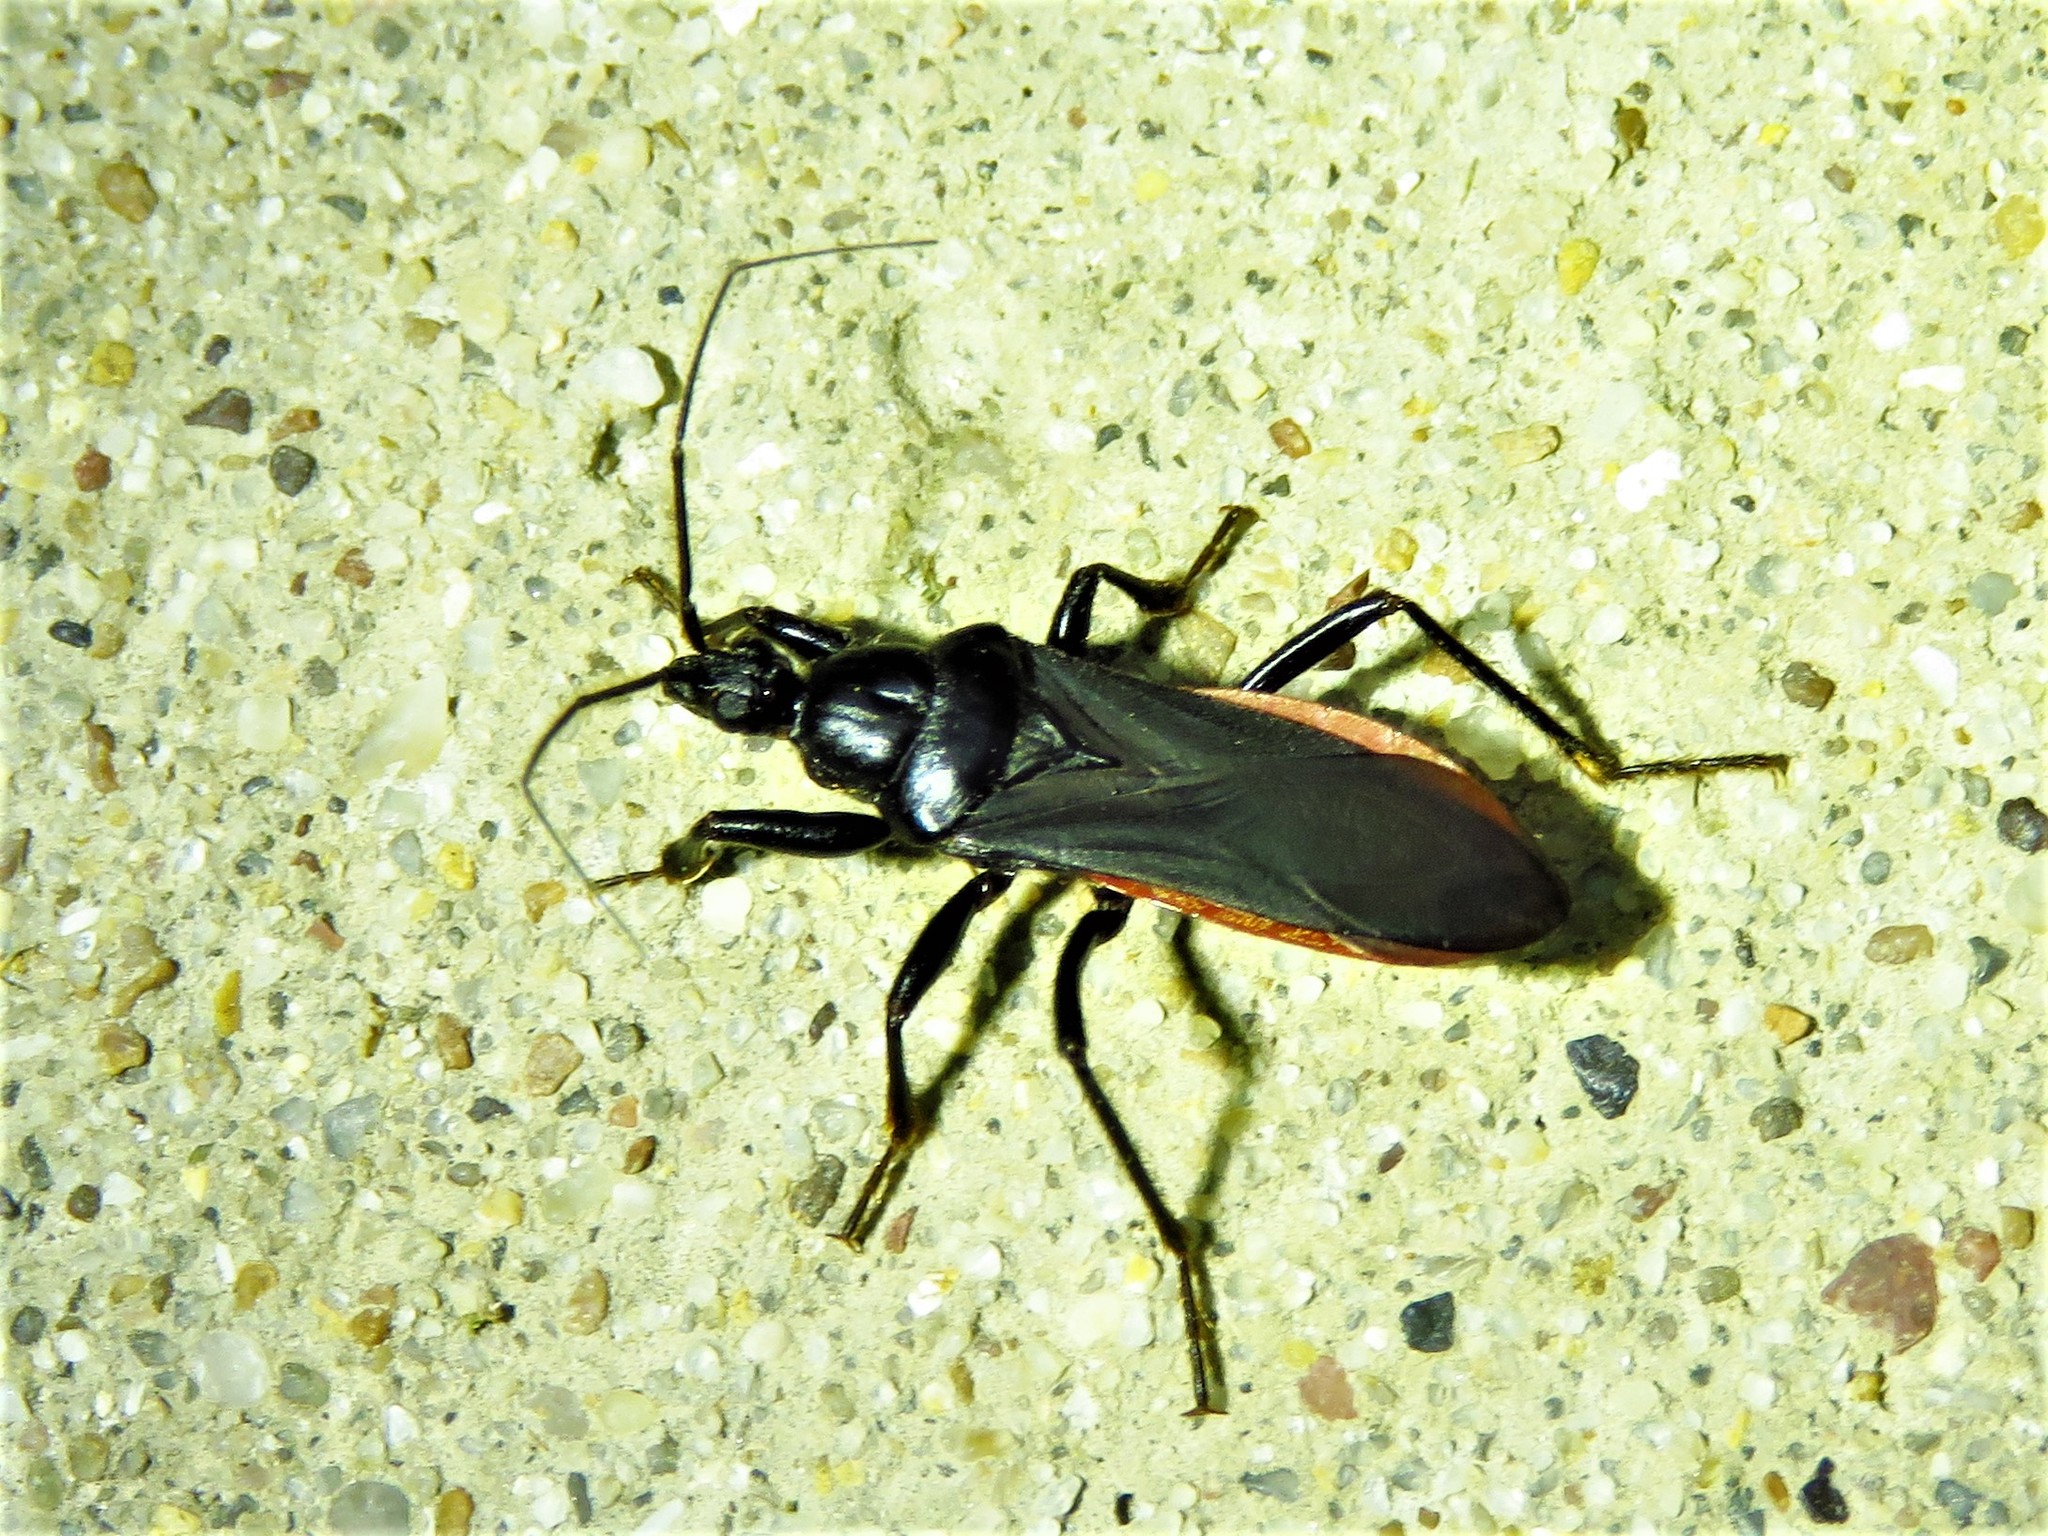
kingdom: Animalia
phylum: Arthropoda
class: Insecta
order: Hemiptera
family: Reduviidae
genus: Melanolestes
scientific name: Melanolestes picipes
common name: Assassin bug
